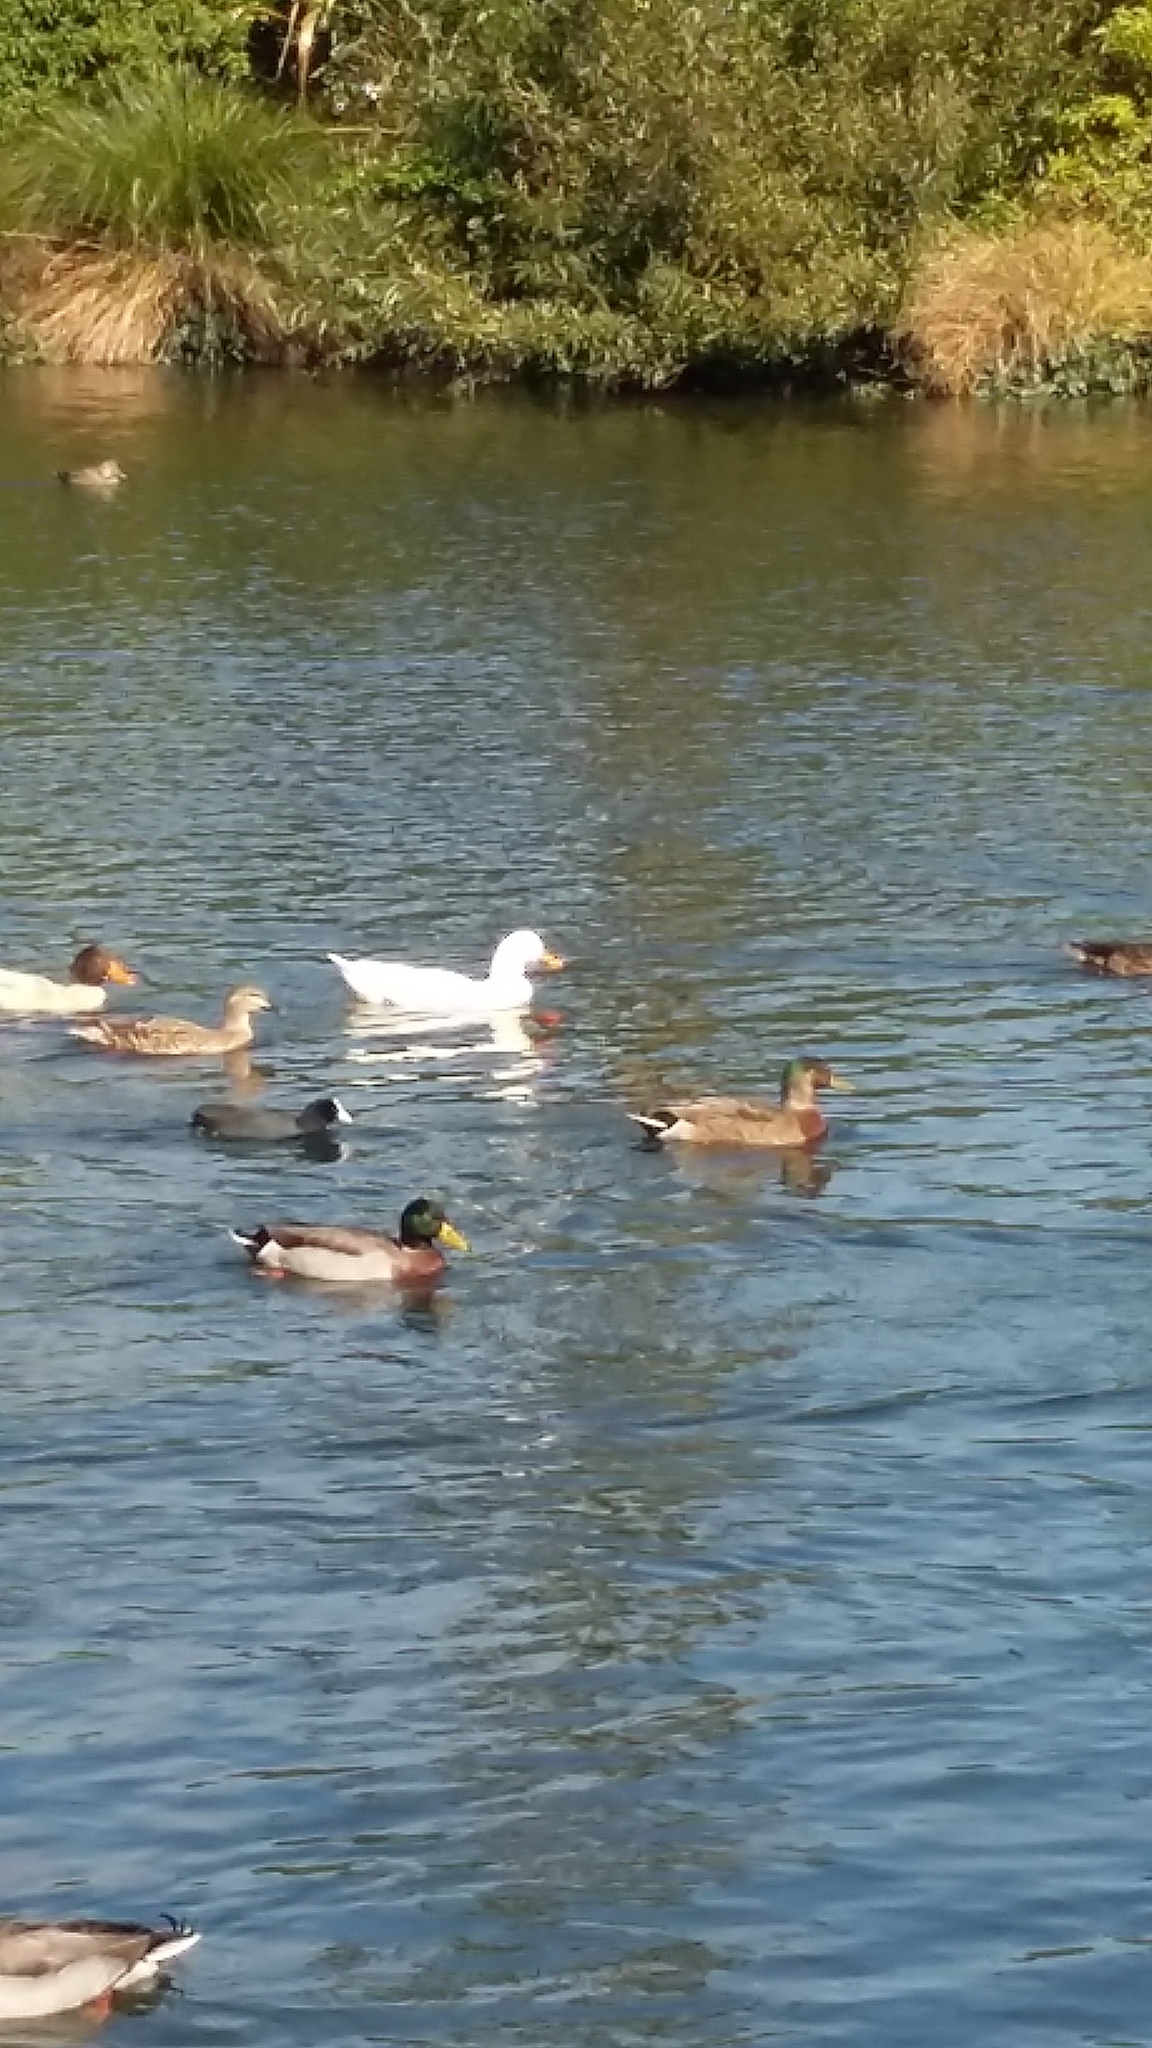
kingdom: Animalia
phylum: Chordata
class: Aves
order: Anseriformes
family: Anatidae
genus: Anser
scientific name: Anser anser
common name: Greylag goose
